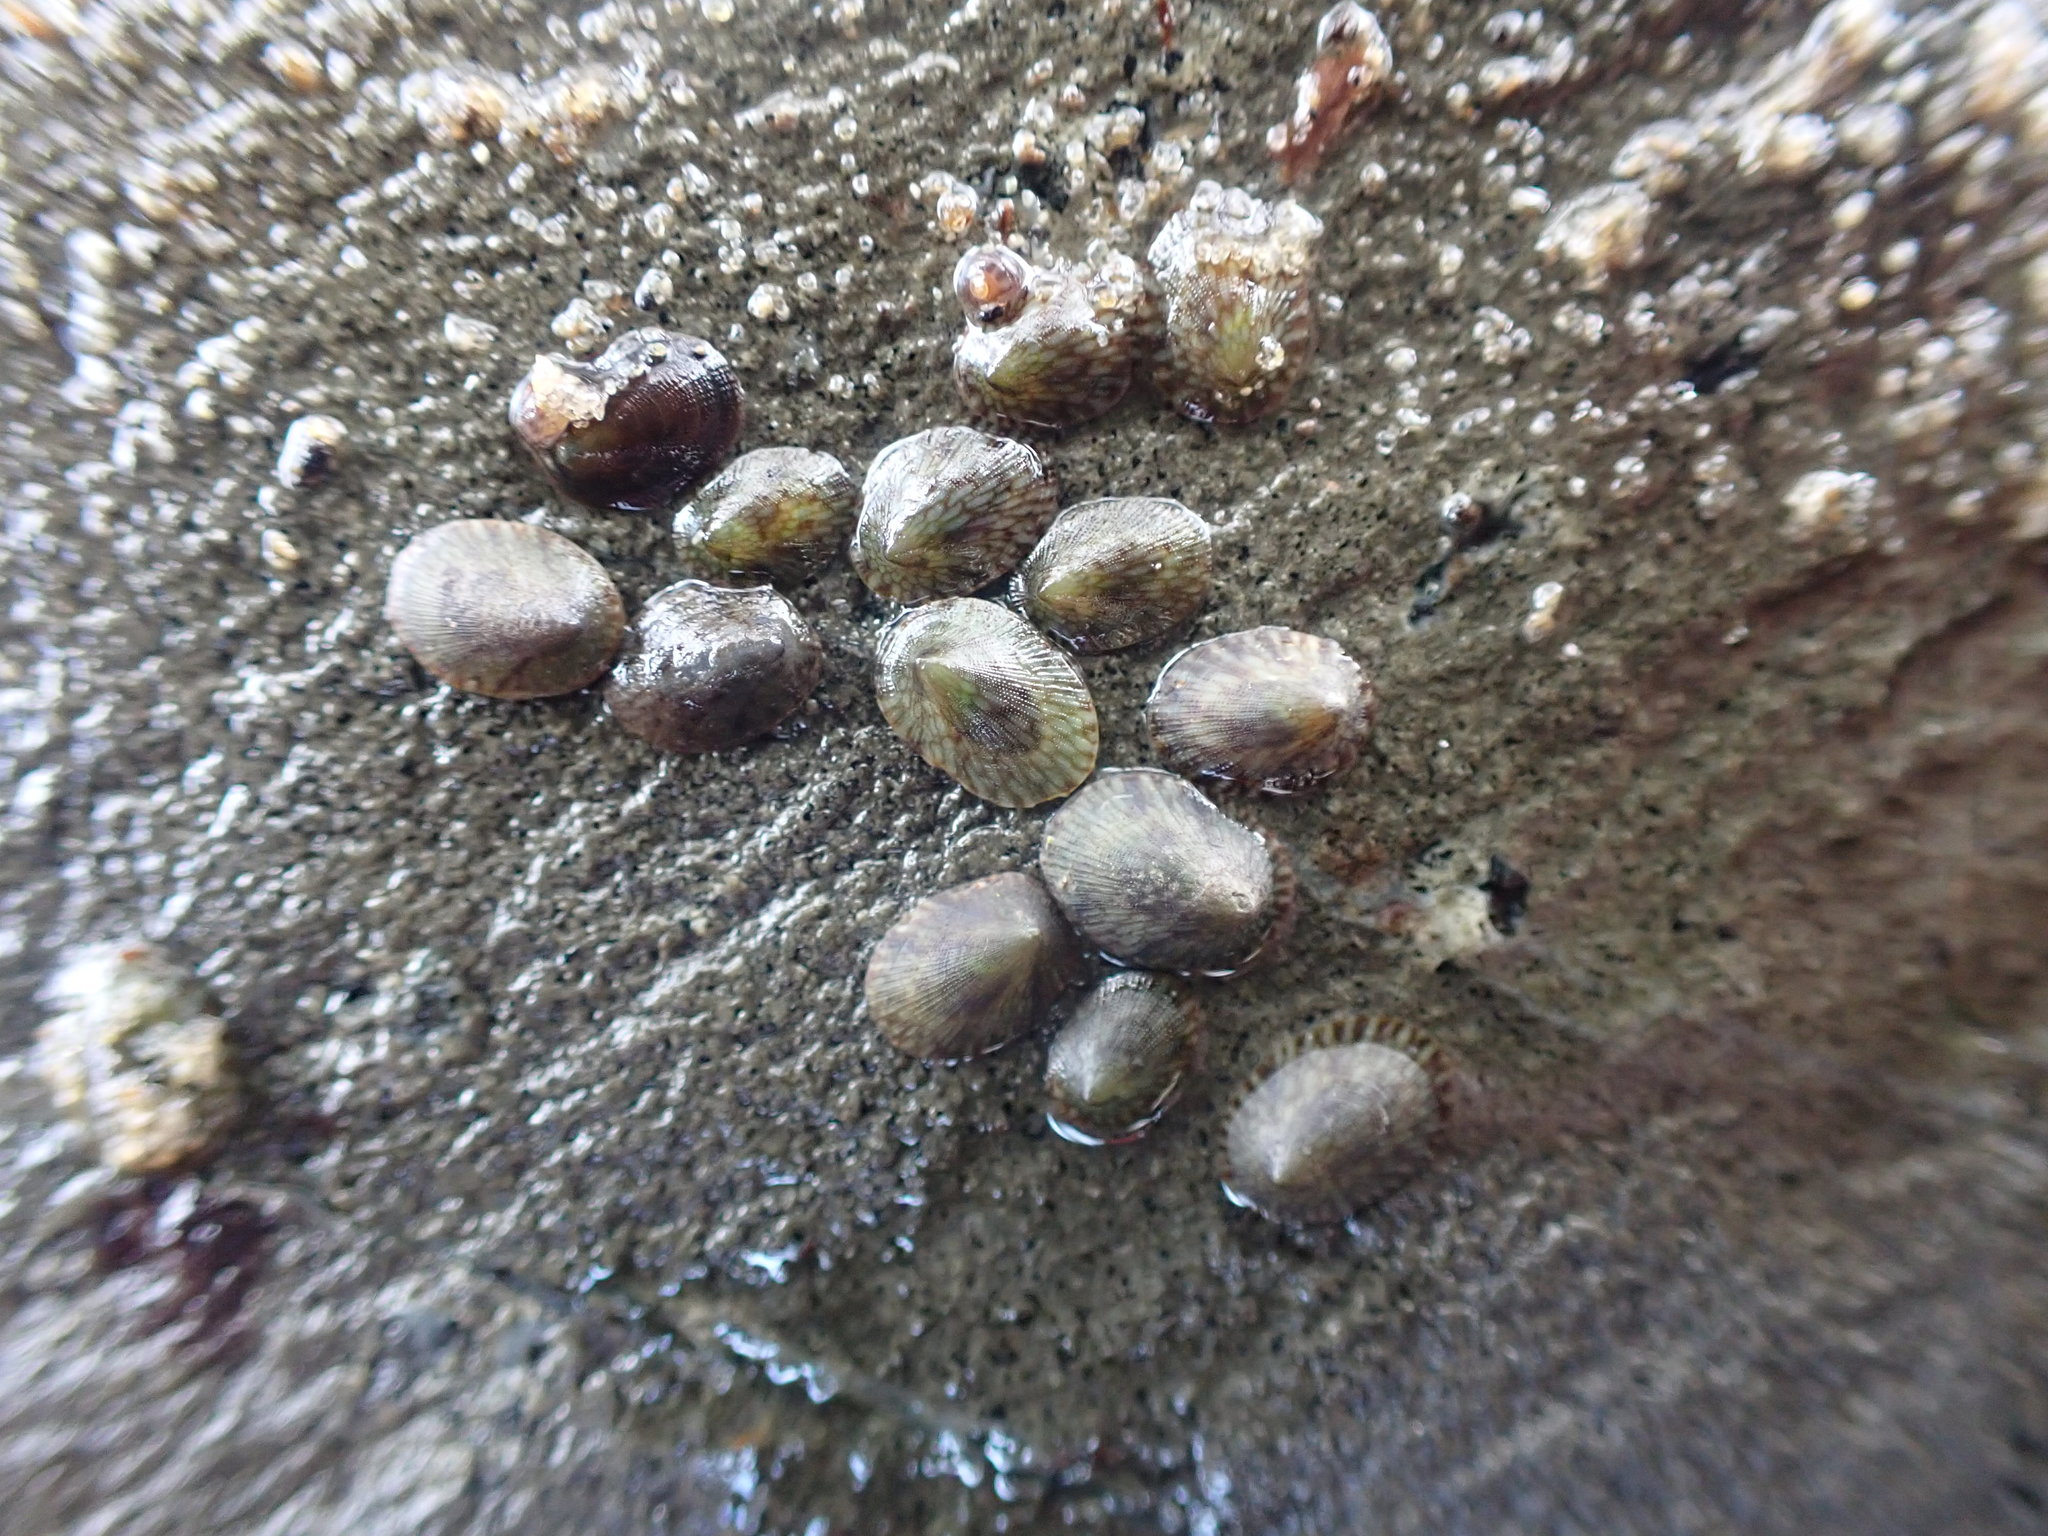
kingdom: Animalia
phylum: Mollusca
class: Gastropoda
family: Lottiidae
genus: Notoacmea
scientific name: Notoacmea
